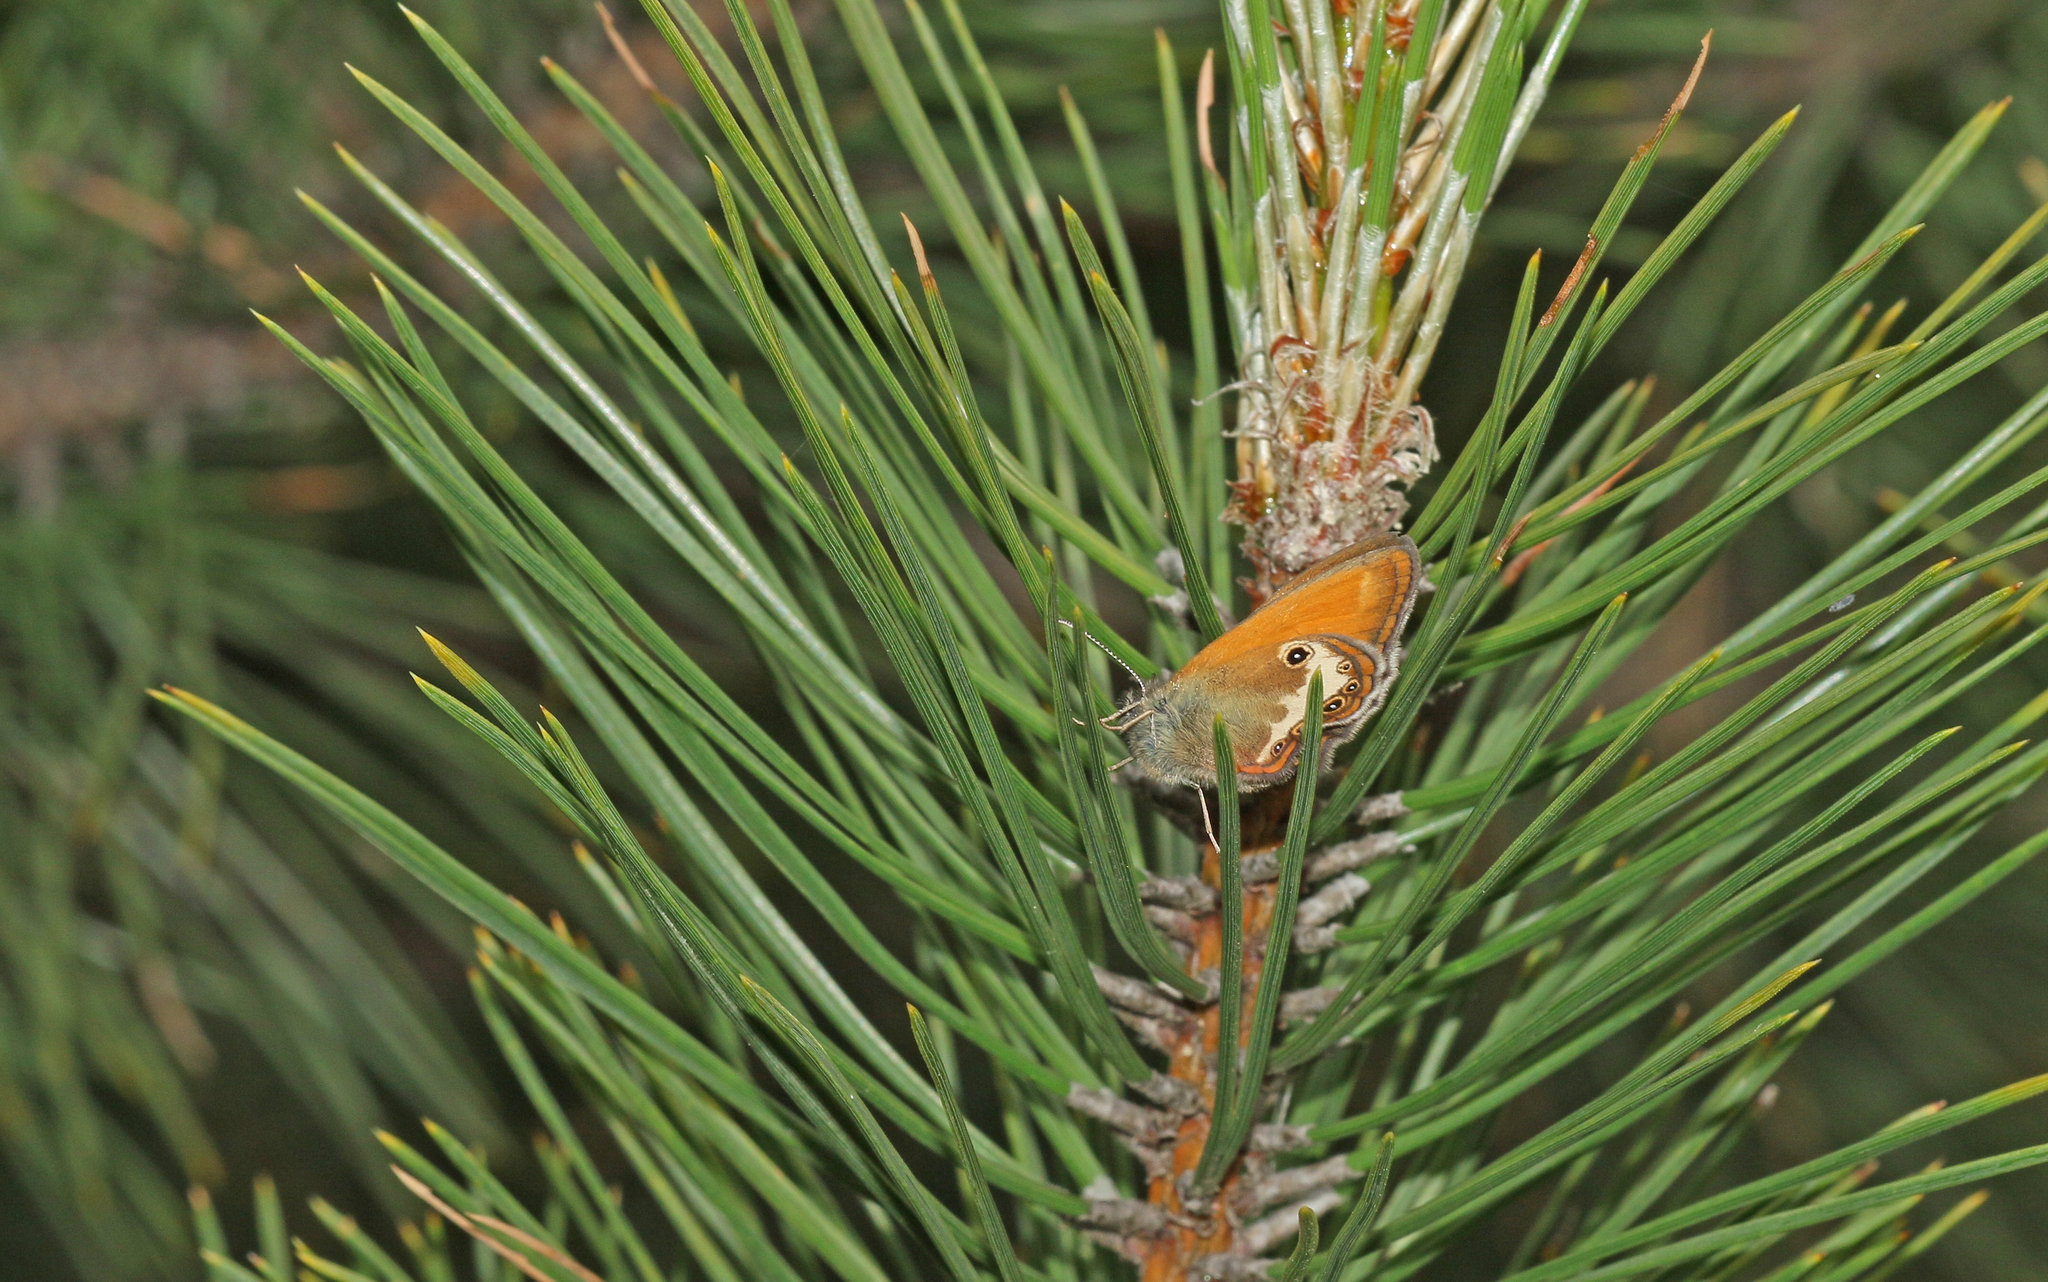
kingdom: Animalia
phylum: Arthropoda
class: Insecta
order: Lepidoptera
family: Nymphalidae
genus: Coenonympha
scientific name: Coenonympha arcania
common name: Pearly heath
